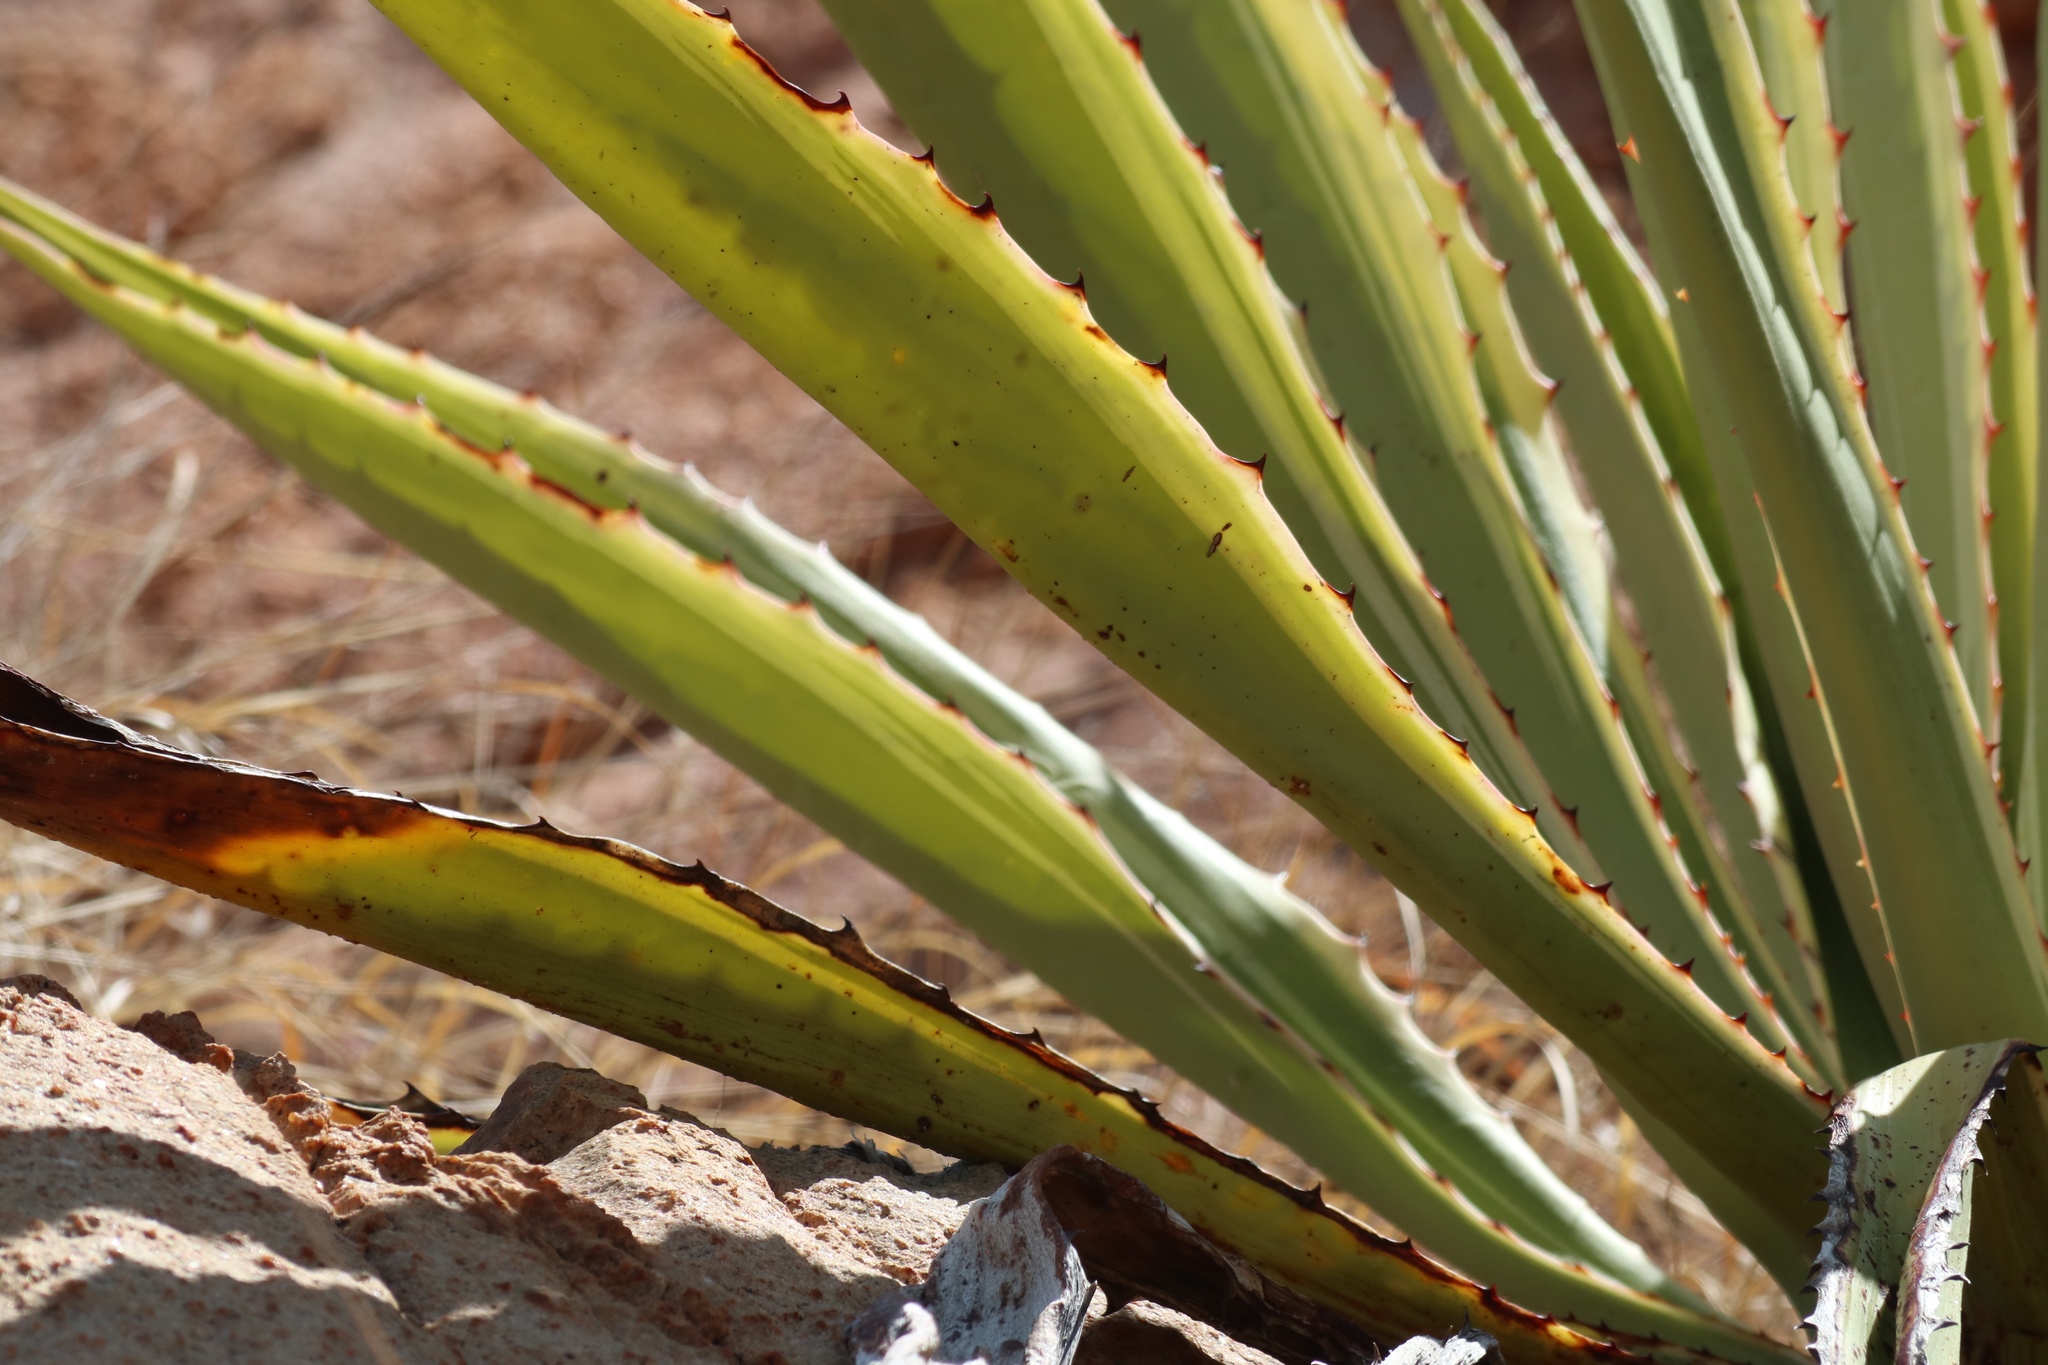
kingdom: Plantae
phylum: Tracheophyta
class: Liliopsida
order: Asparagales
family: Asparagaceae
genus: Furcraea
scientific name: Furcraea selloana
